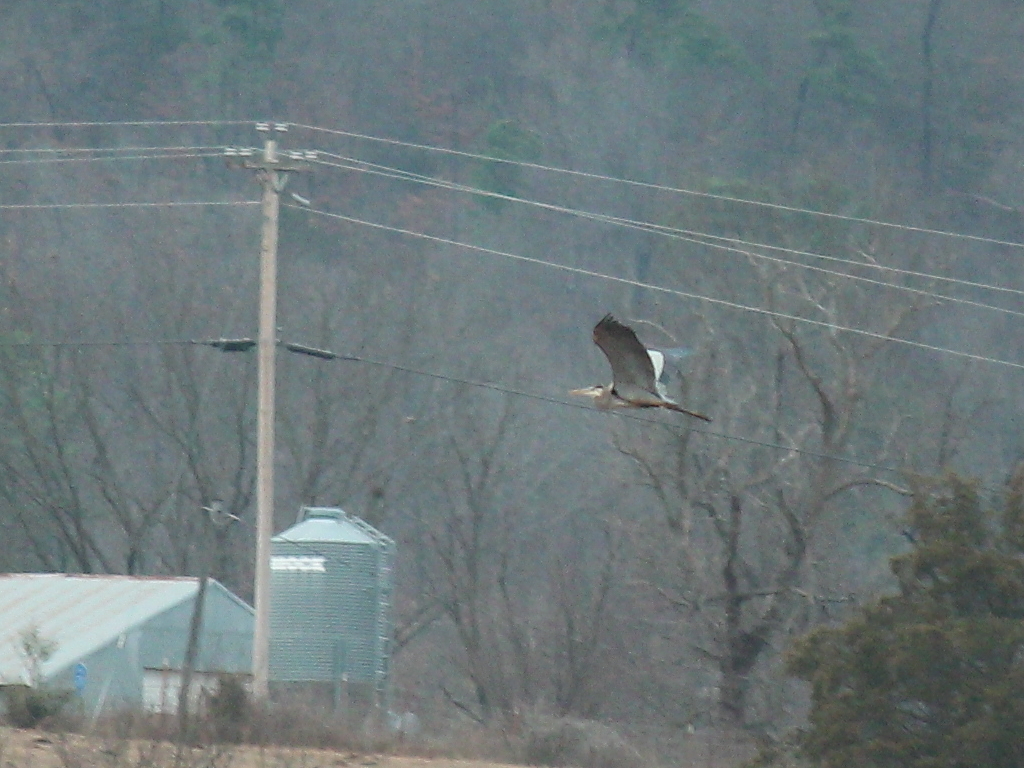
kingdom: Animalia
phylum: Chordata
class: Aves
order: Pelecaniformes
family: Ardeidae
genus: Ardea
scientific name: Ardea herodias
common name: Great blue heron
